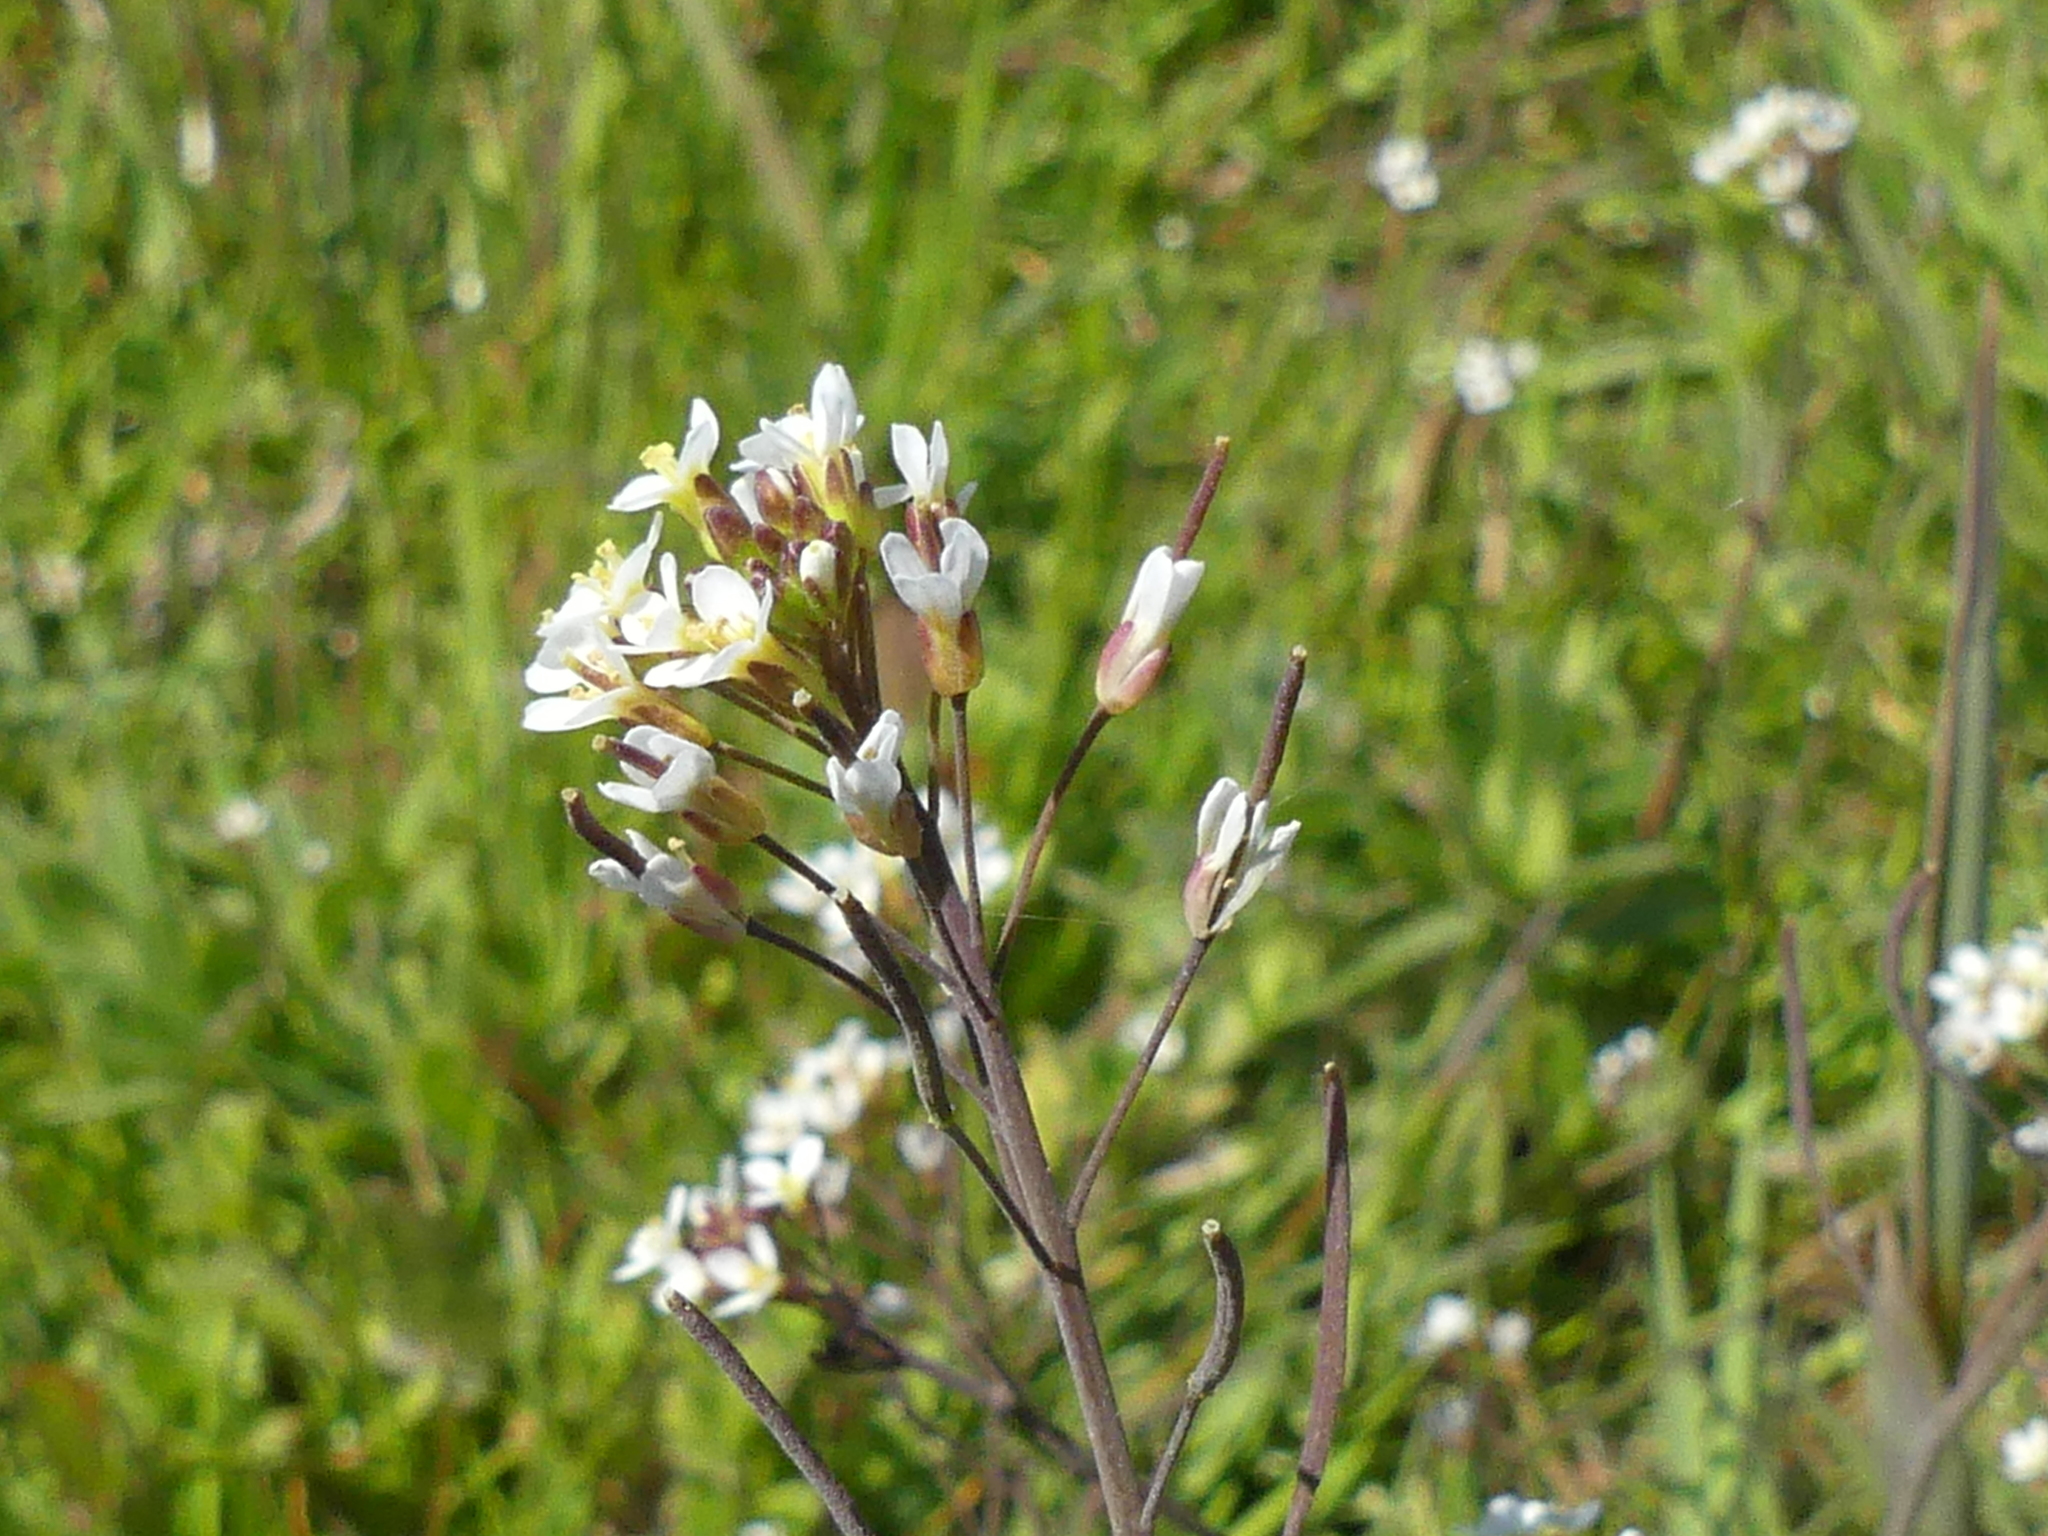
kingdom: Plantae
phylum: Tracheophyta
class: Magnoliopsida
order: Brassicales
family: Brassicaceae
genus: Arabidopsis
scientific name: Arabidopsis thaliana
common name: Thale cress
